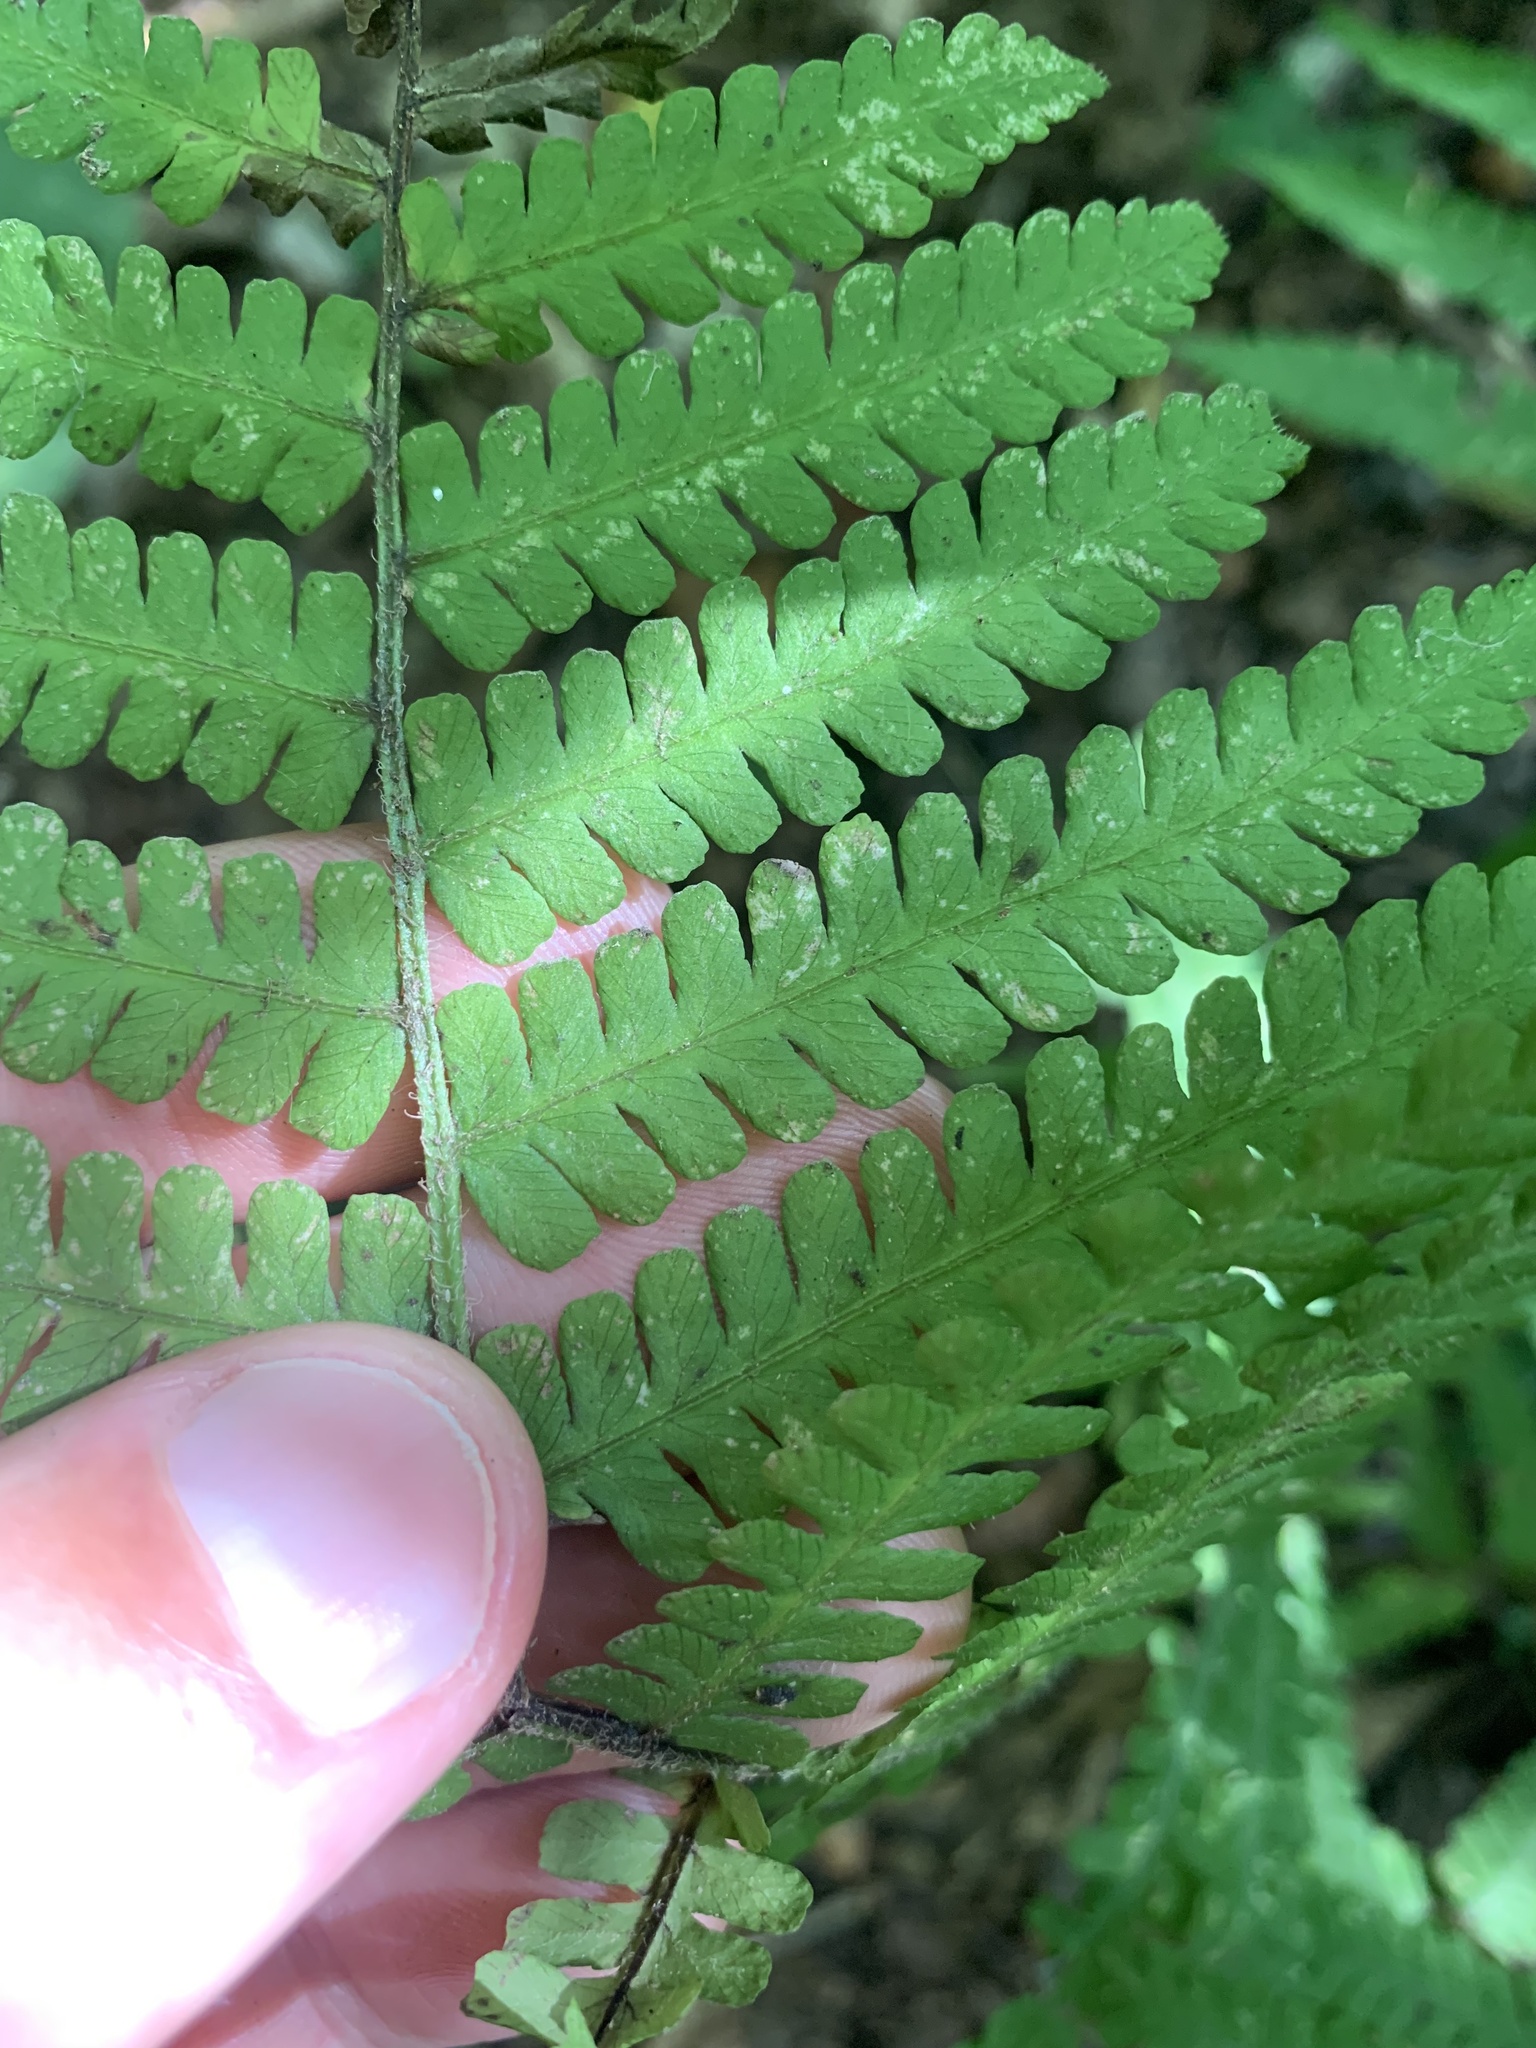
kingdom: Plantae
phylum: Tracheophyta
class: Polypodiopsida
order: Polypodiales
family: Athyriaceae
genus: Deparia
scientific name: Deparia acrostichoides
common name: Silver false spleenwort
